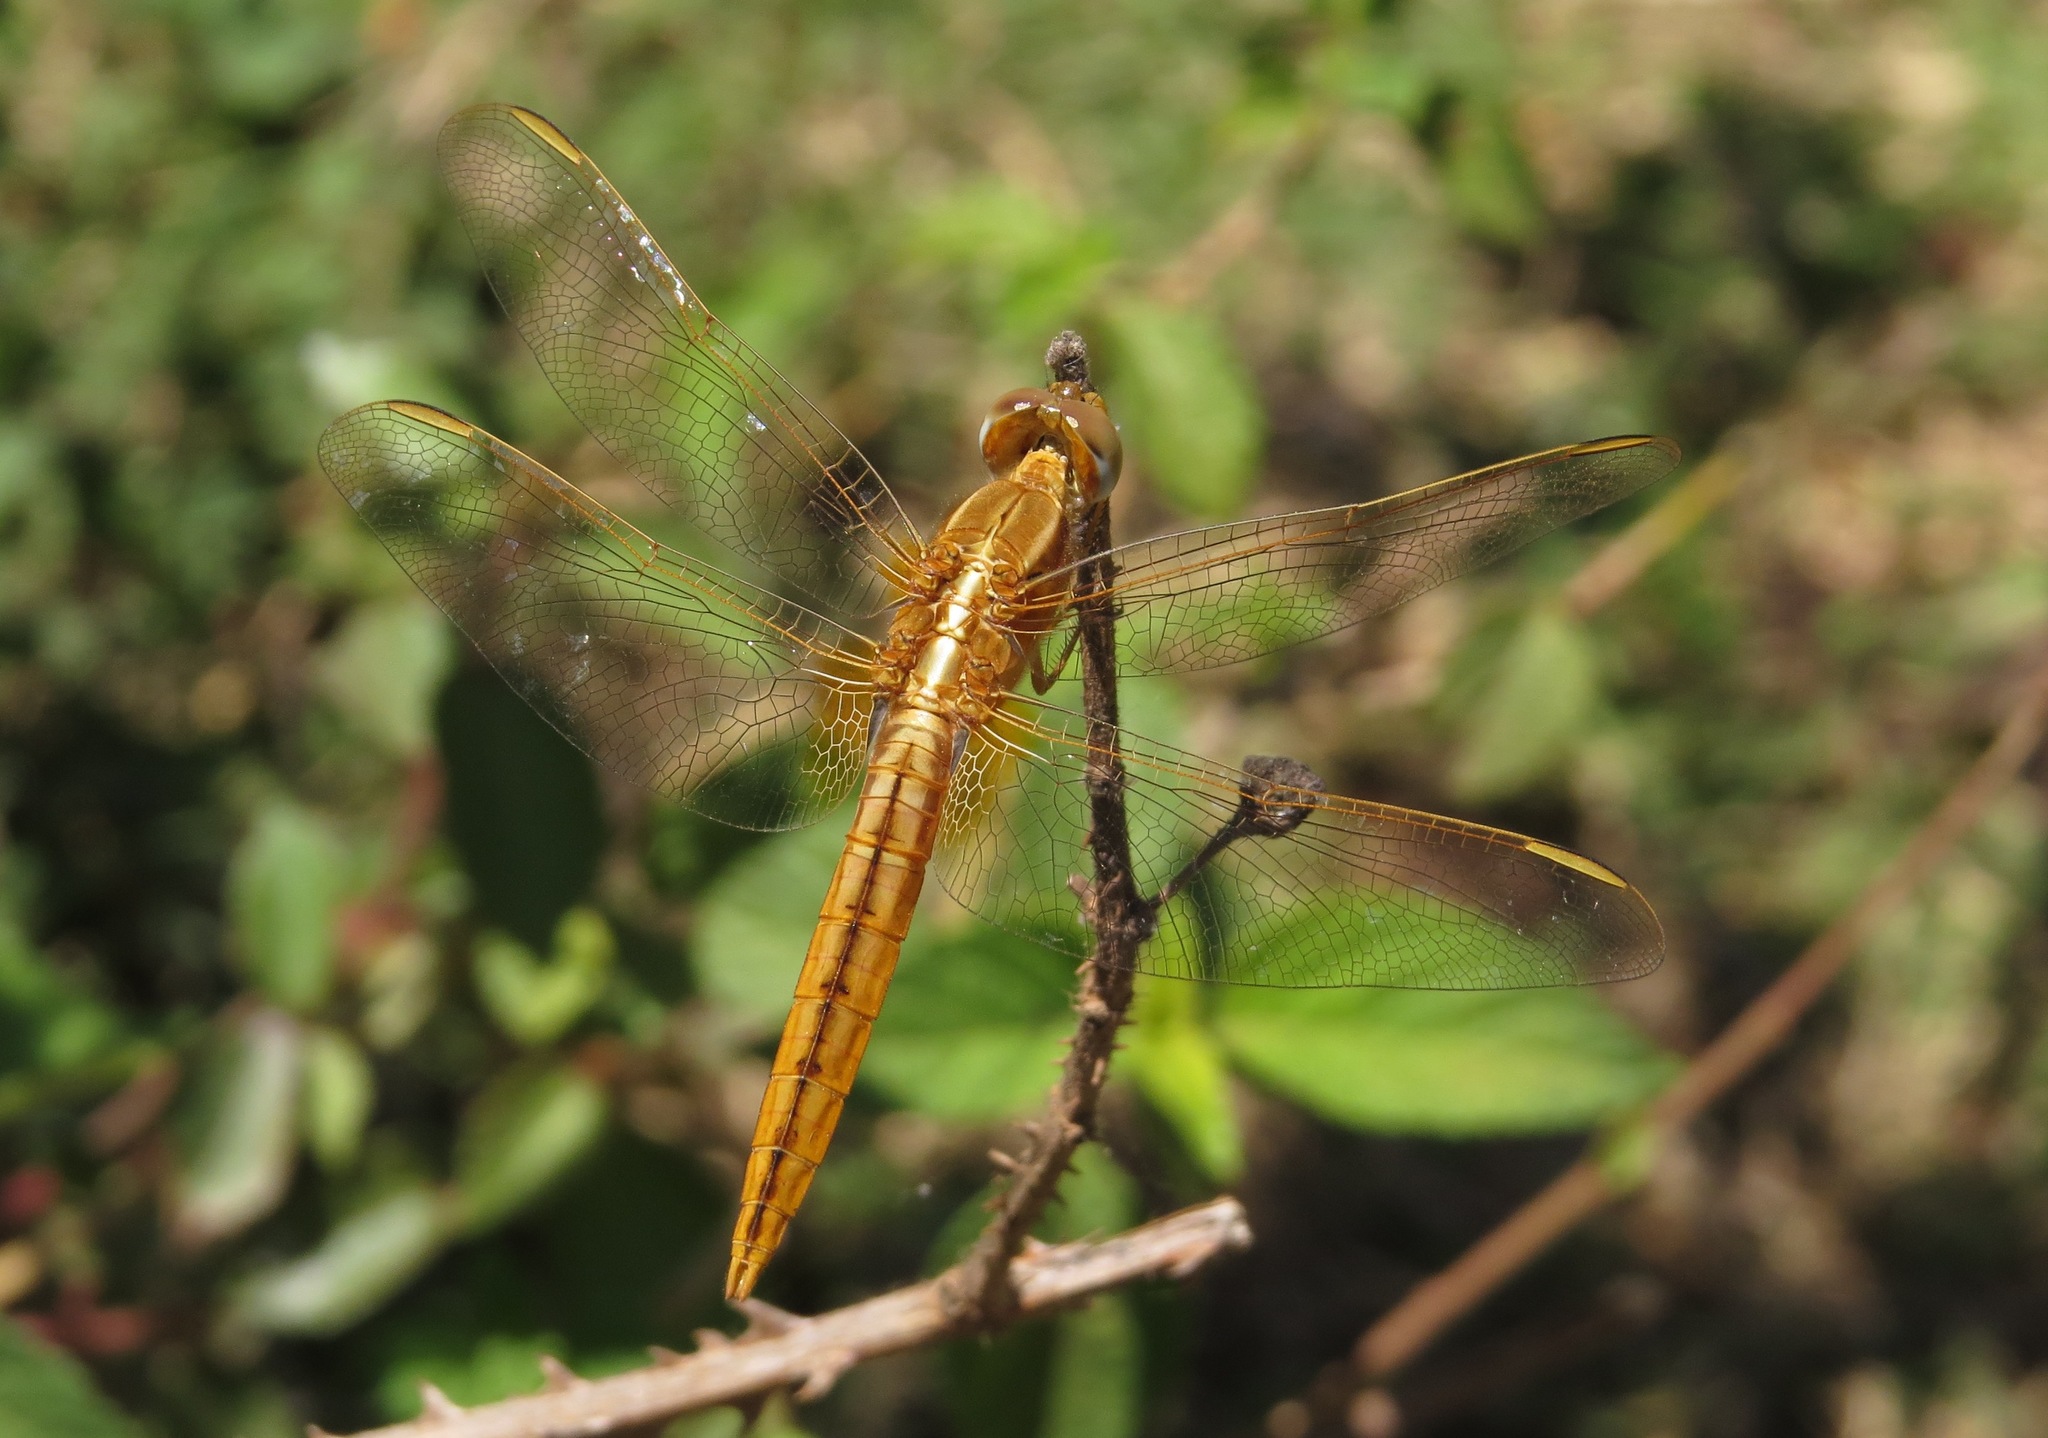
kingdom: Animalia
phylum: Arthropoda
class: Insecta
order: Odonata
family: Libellulidae
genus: Crocothemis
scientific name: Crocothemis erythraea
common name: Scarlet dragonfly
